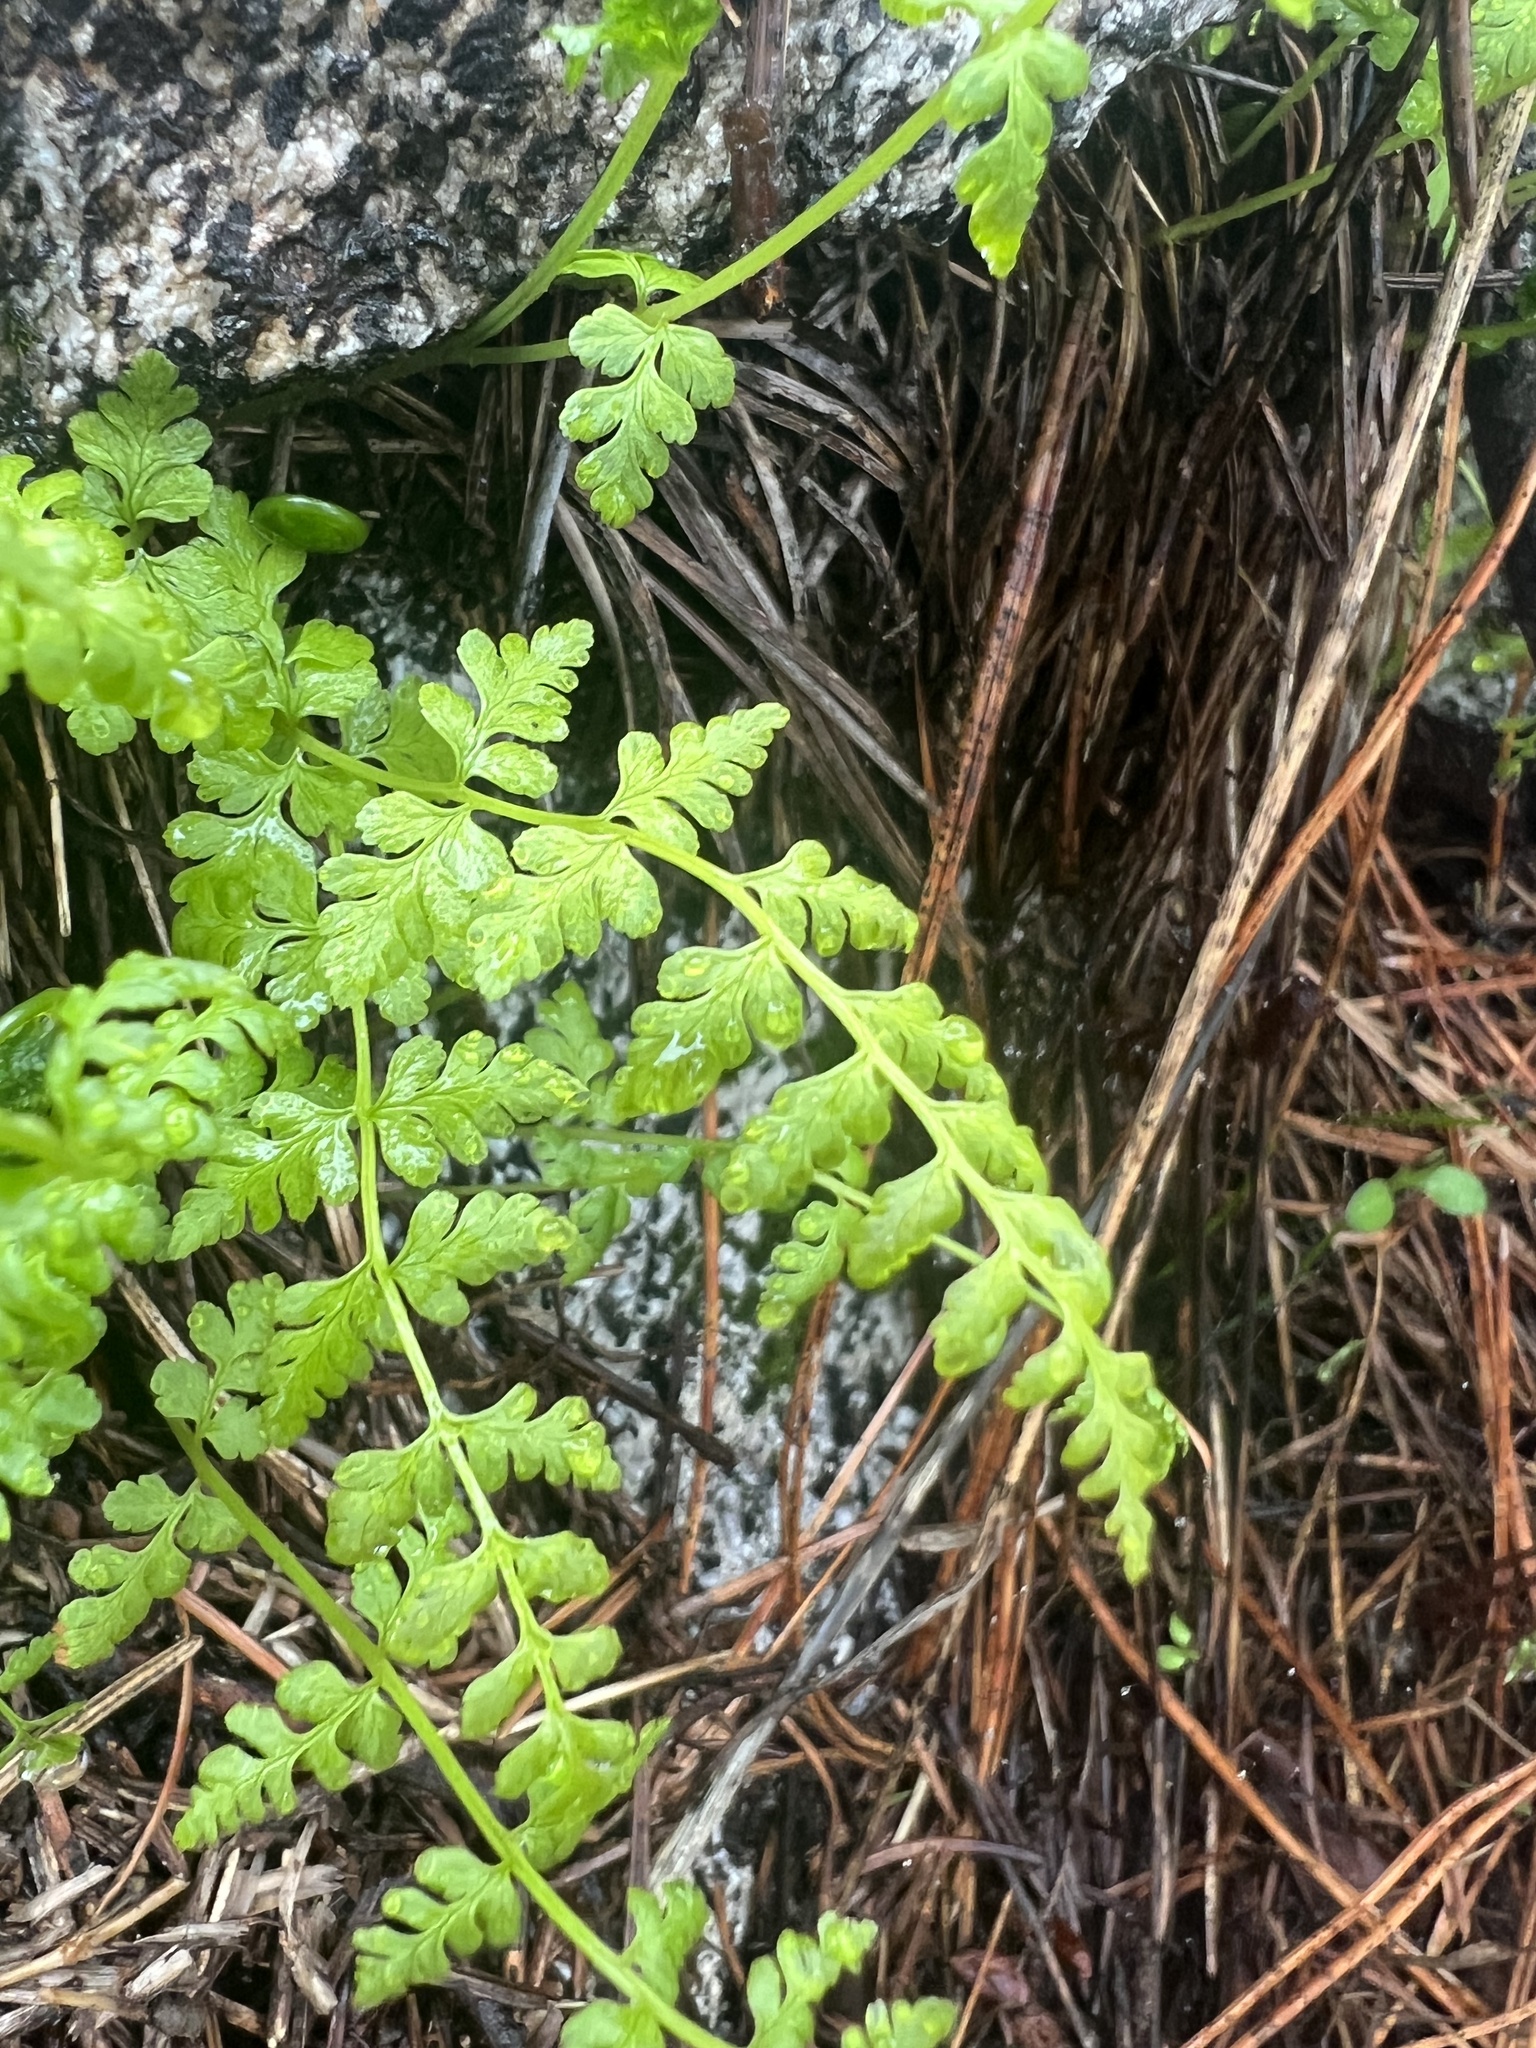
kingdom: Plantae
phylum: Tracheophyta
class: Polypodiopsida
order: Polypodiales
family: Cystopteridaceae
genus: Cystopteris
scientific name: Cystopteris fragilis
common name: Brittle bladder fern
